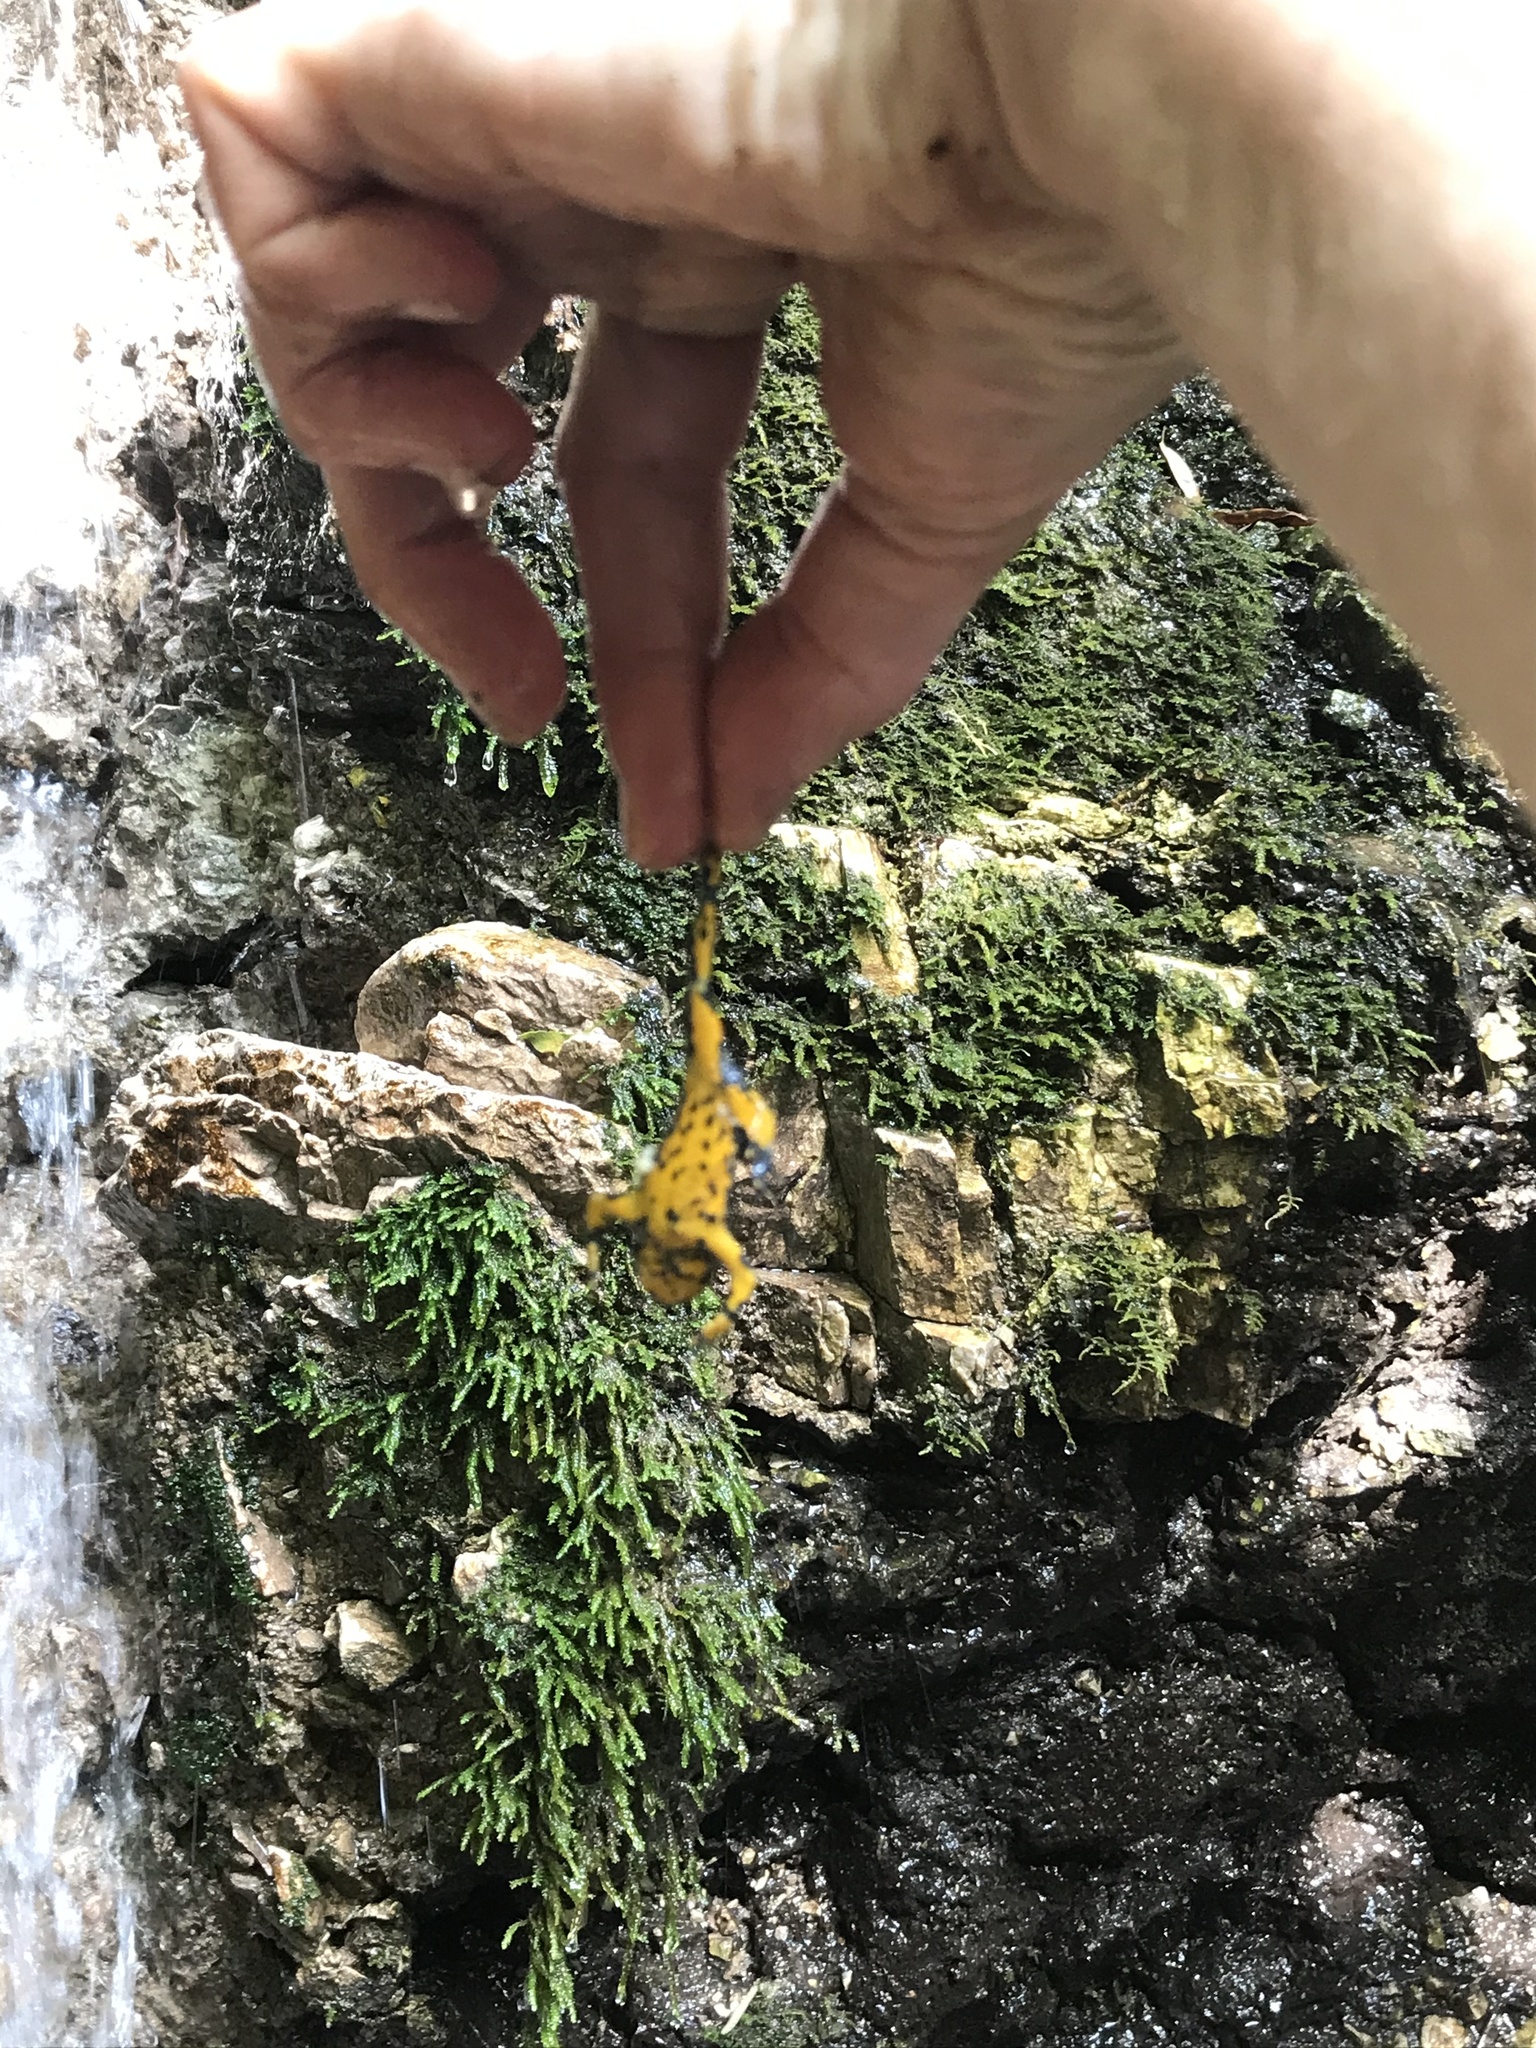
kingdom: Animalia
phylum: Chordata
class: Amphibia
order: Anura
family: Bombinatoridae
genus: Bombina
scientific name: Bombina variegata
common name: Yellow-bellied toad
